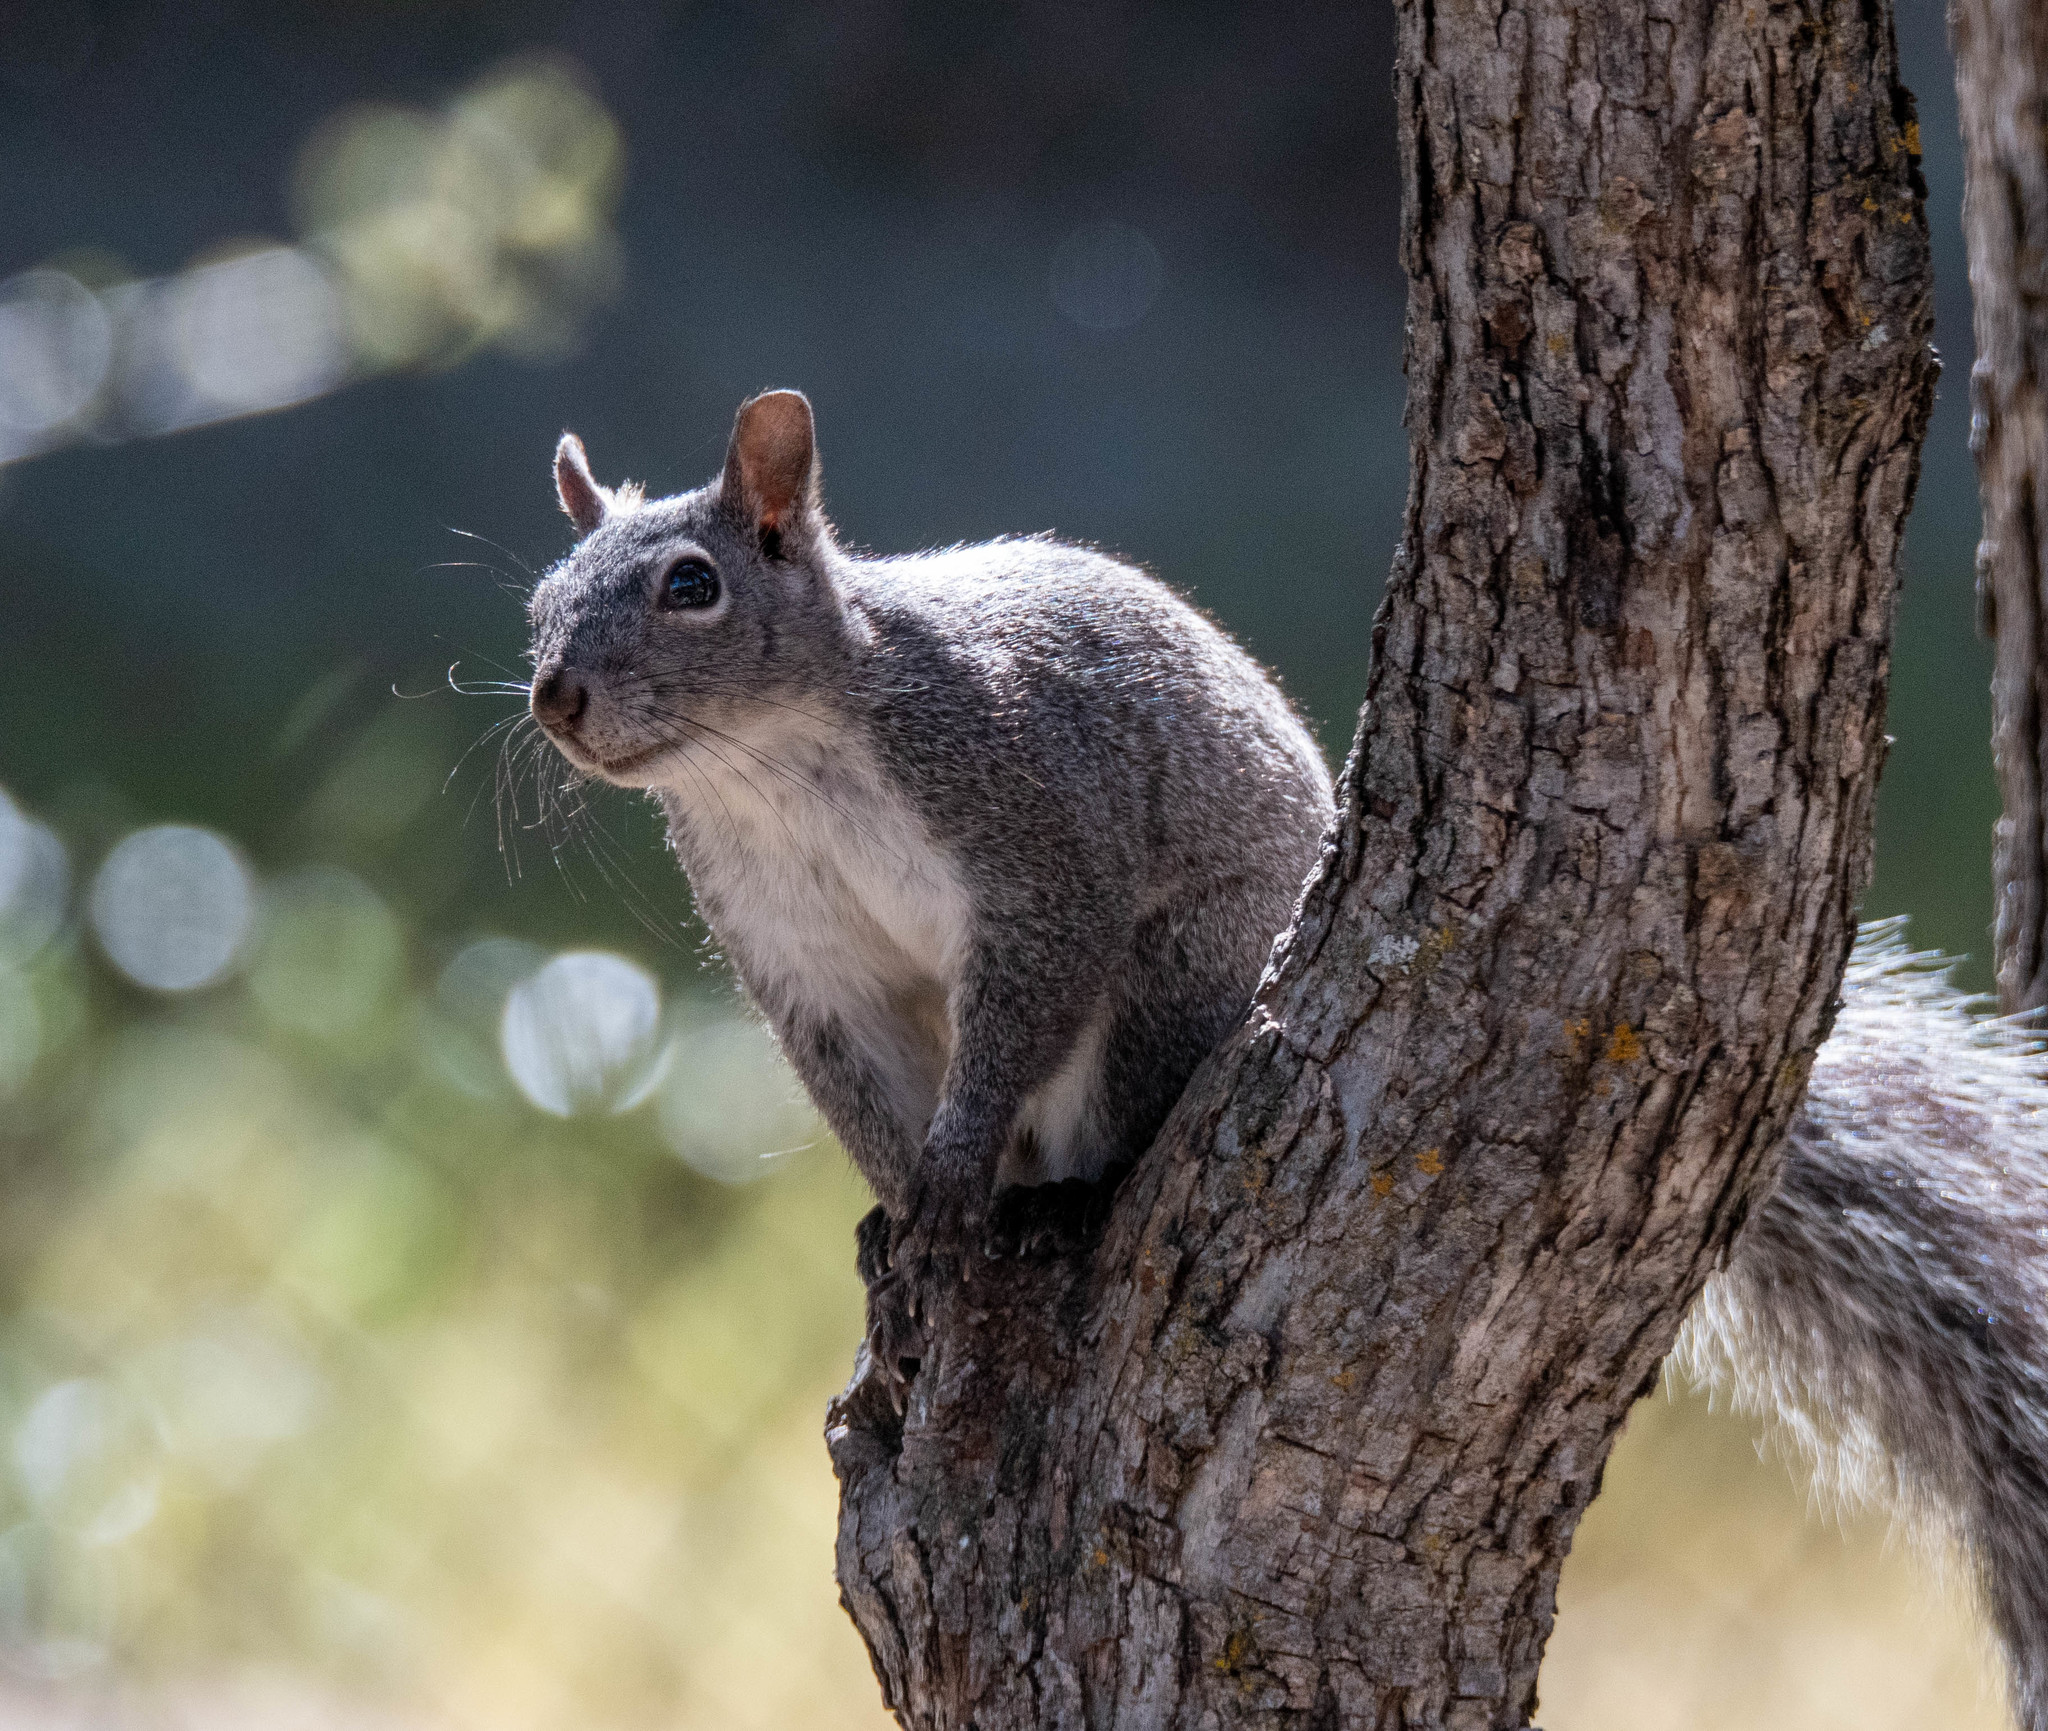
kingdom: Animalia
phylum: Chordata
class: Mammalia
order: Rodentia
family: Sciuridae
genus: Sciurus
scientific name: Sciurus griseus
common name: Western gray squirrel
